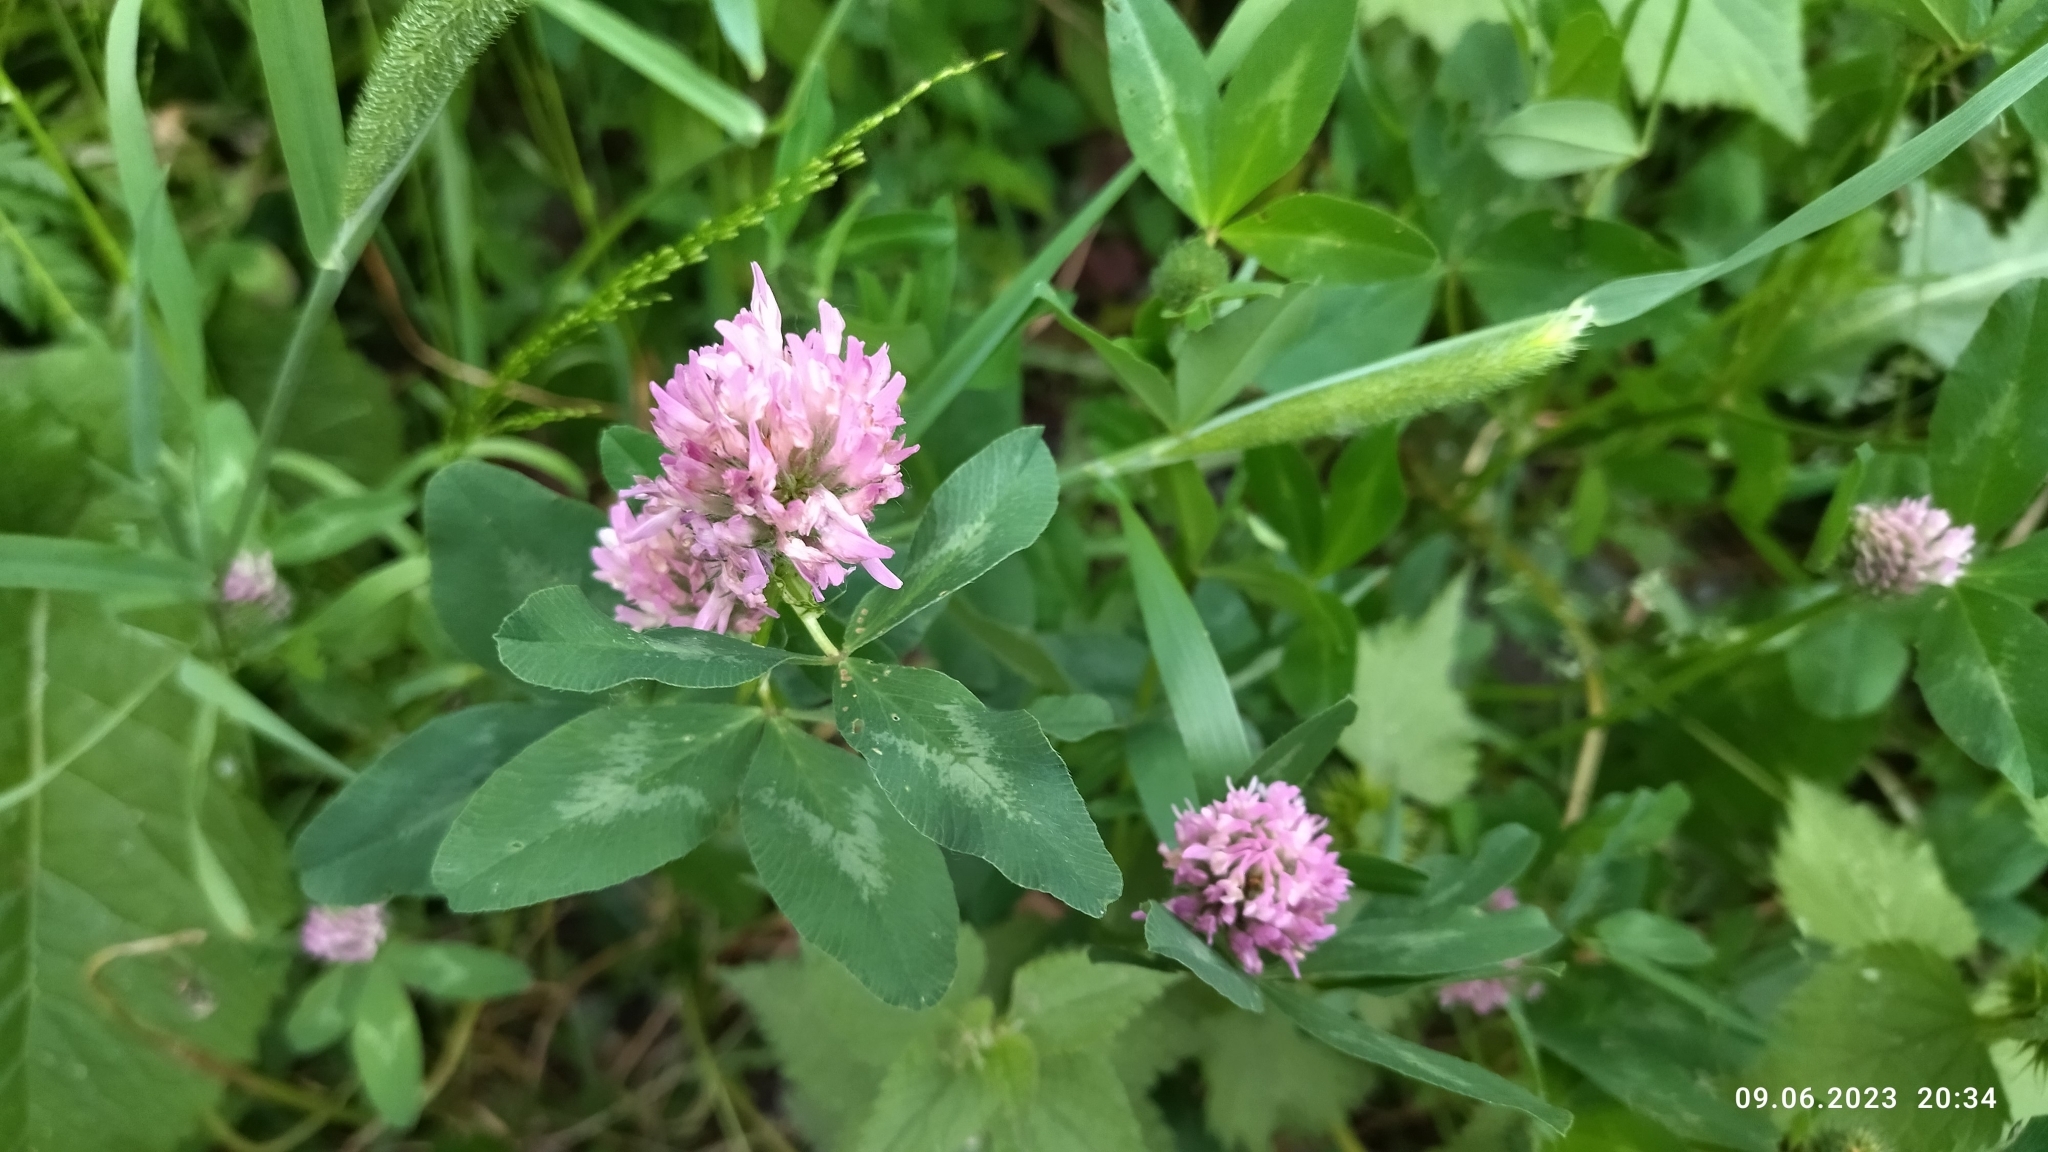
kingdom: Plantae
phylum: Tracheophyta
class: Magnoliopsida
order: Fabales
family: Fabaceae
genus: Trifolium
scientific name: Trifolium pratense
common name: Red clover
